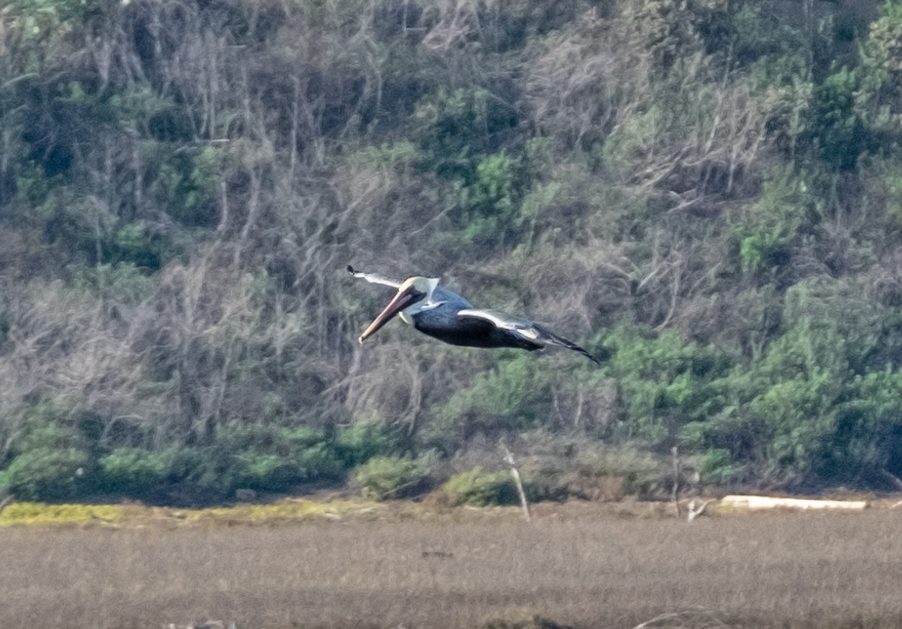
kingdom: Animalia
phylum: Chordata
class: Aves
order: Pelecaniformes
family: Pelecanidae
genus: Pelecanus
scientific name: Pelecanus occidentalis
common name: Brown pelican
